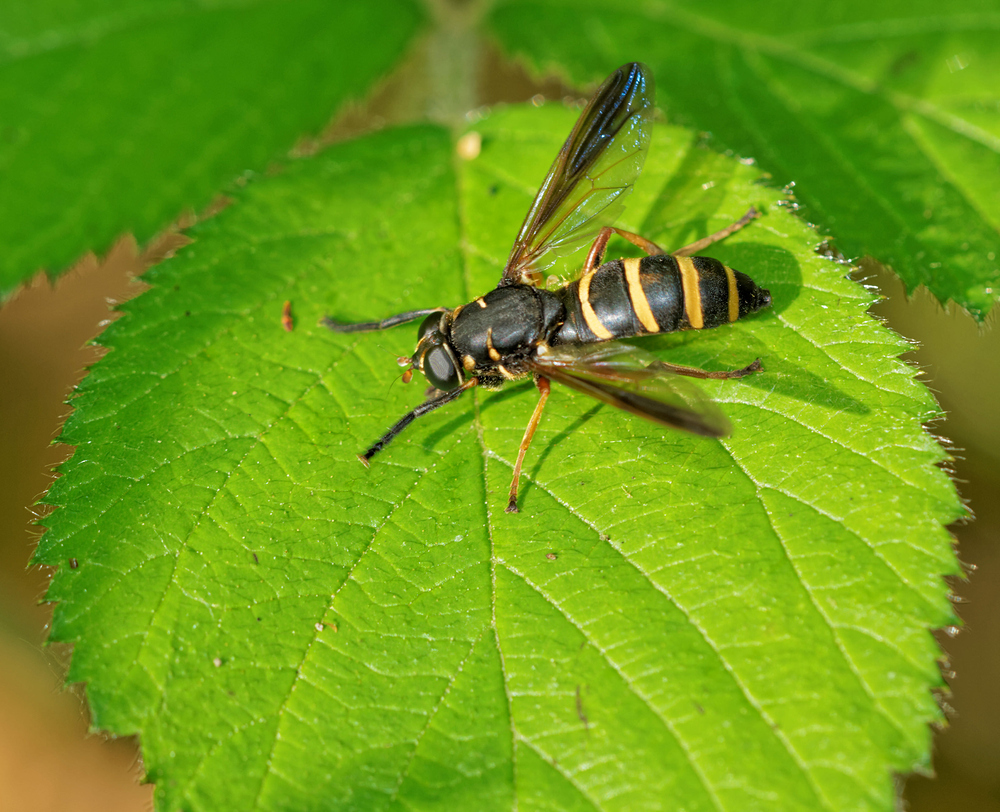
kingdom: Animalia
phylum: Arthropoda
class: Insecta
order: Diptera
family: Syrphidae
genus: Temnostoma
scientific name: Temnostoma bombylans
